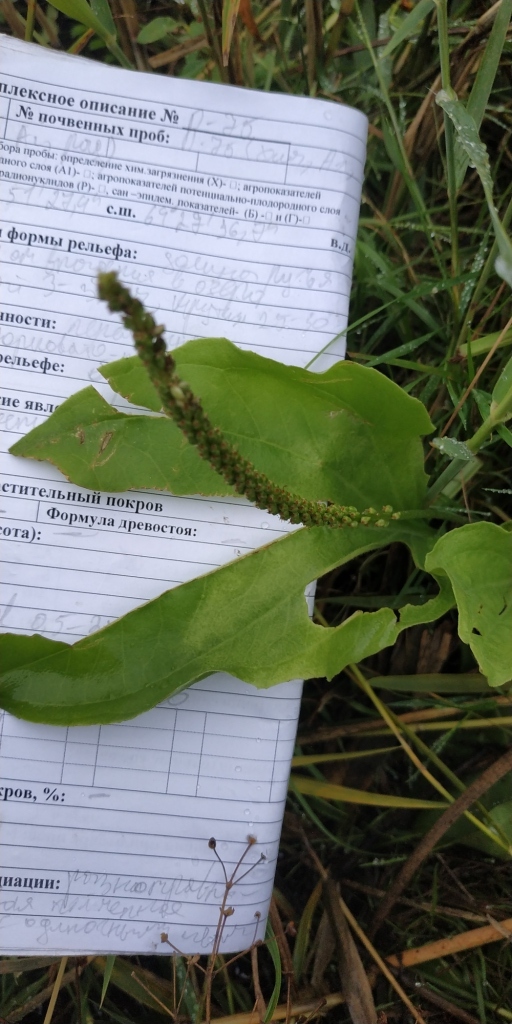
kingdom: Plantae
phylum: Tracheophyta
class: Magnoliopsida
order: Lamiales
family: Plantaginaceae
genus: Plantago
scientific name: Plantago major
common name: Common plantain
